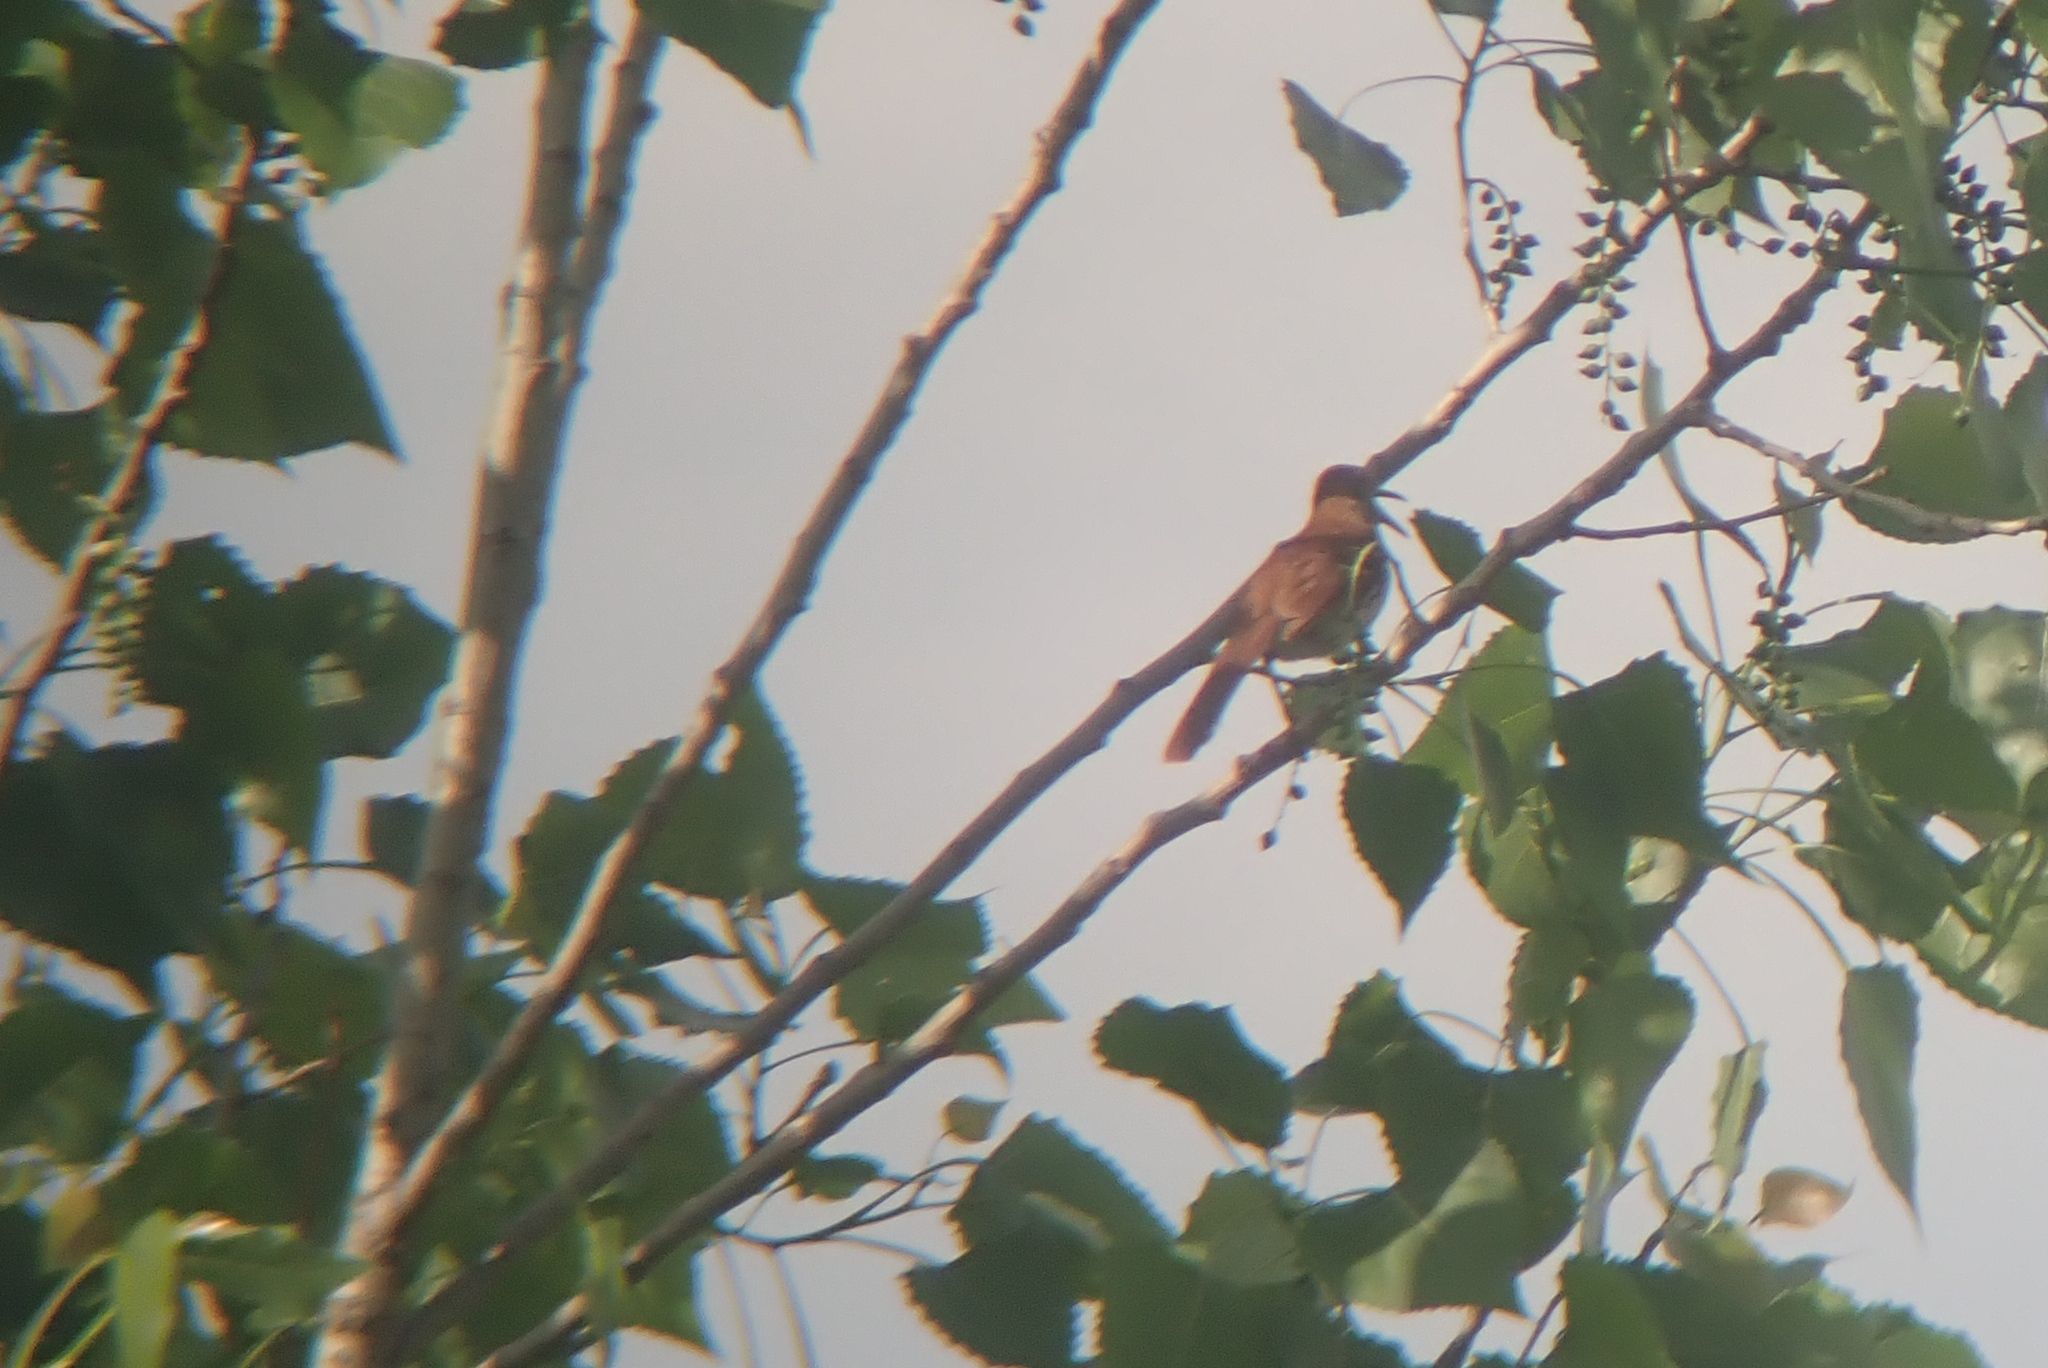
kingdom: Animalia
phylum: Chordata
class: Aves
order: Passeriformes
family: Mimidae
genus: Toxostoma
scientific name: Toxostoma rufum
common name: Brown thrasher
